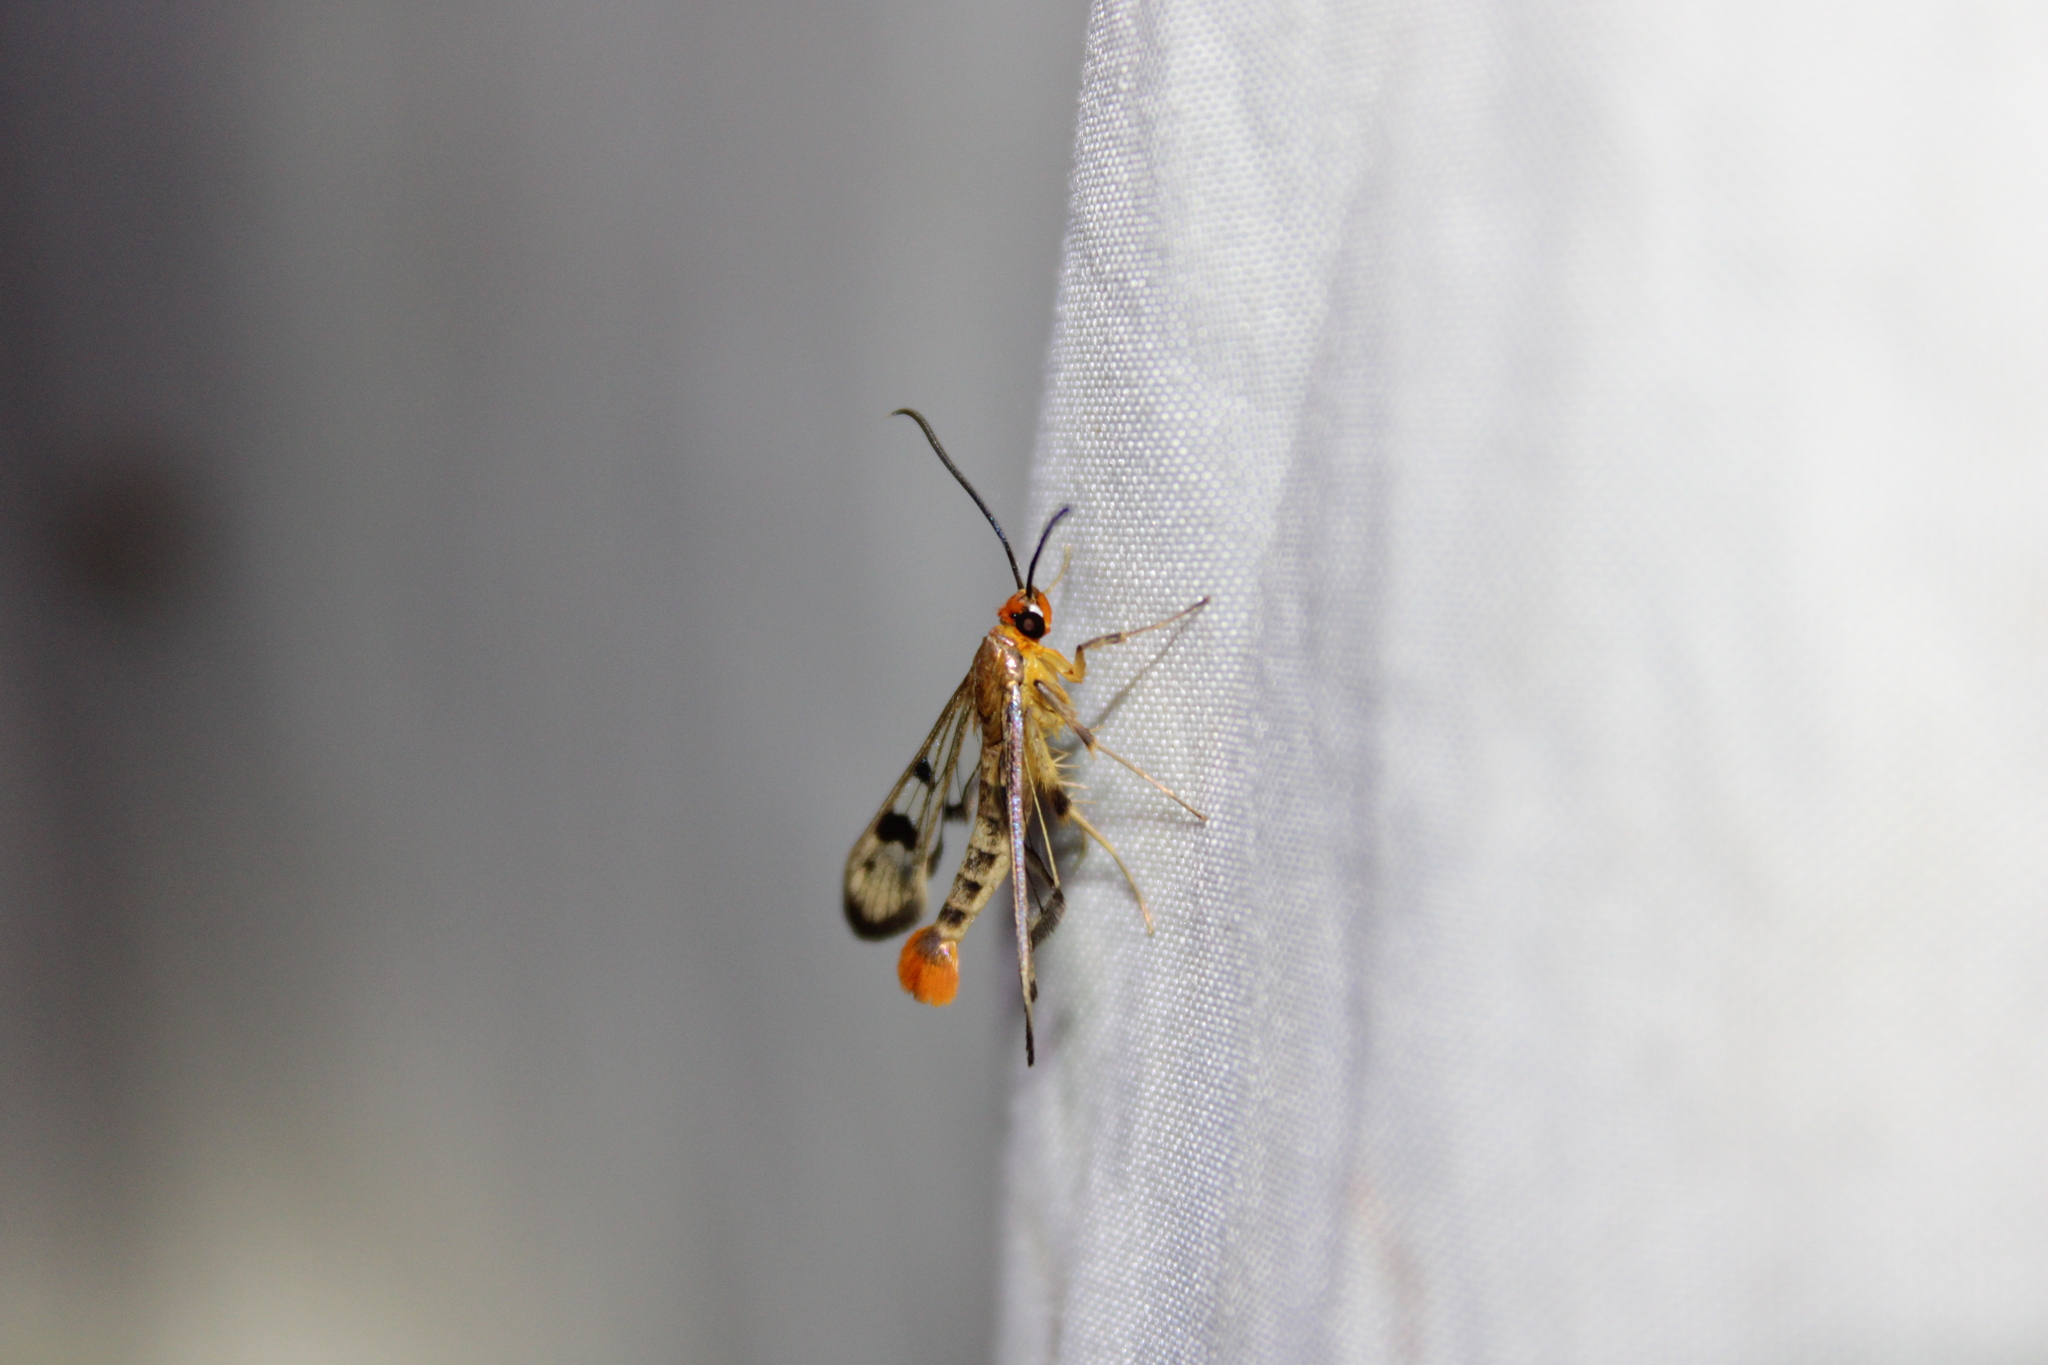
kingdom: Animalia
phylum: Arthropoda
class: Insecta
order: Lepidoptera
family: Sesiidae
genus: Synanthedon
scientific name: Synanthedon acerni
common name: Maple callus borer moth
